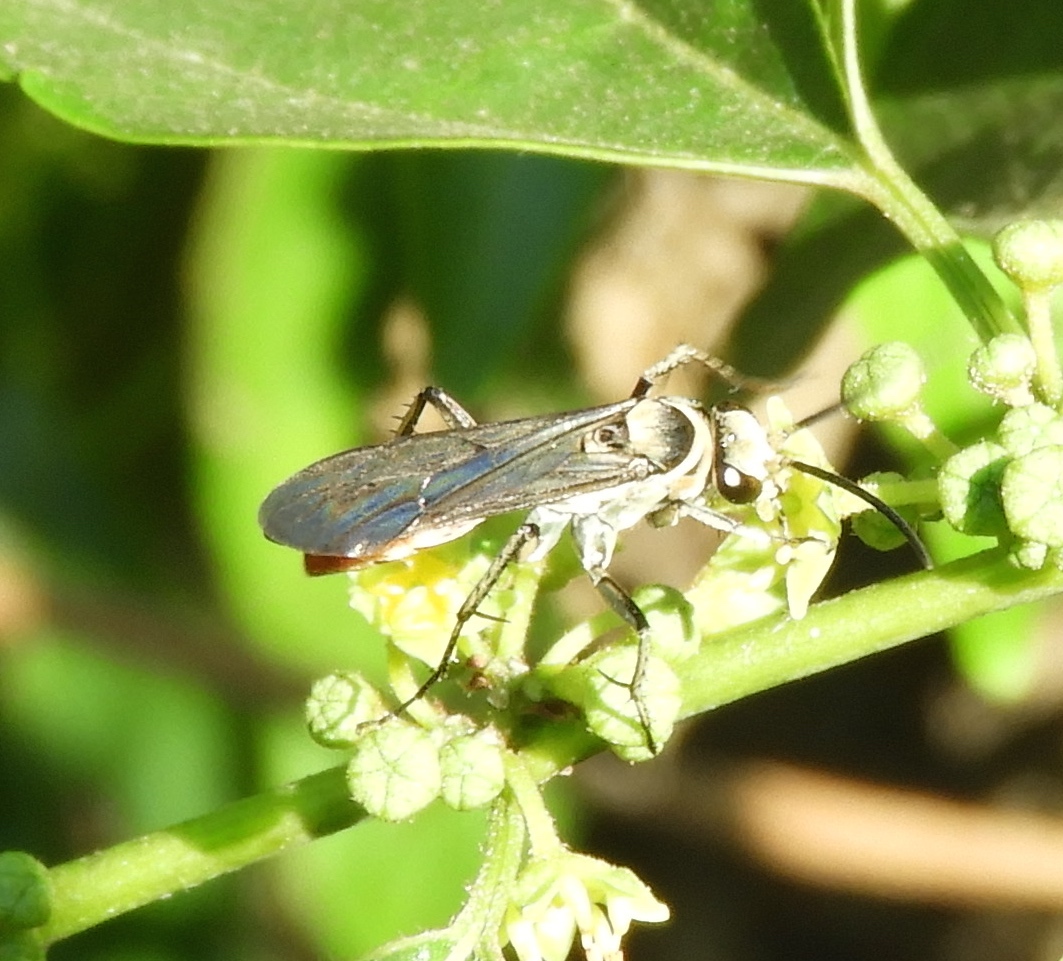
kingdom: Animalia
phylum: Arthropoda
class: Insecta
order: Hymenoptera
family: Pompilidae
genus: Xerochares
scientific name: Xerochares expulsus
